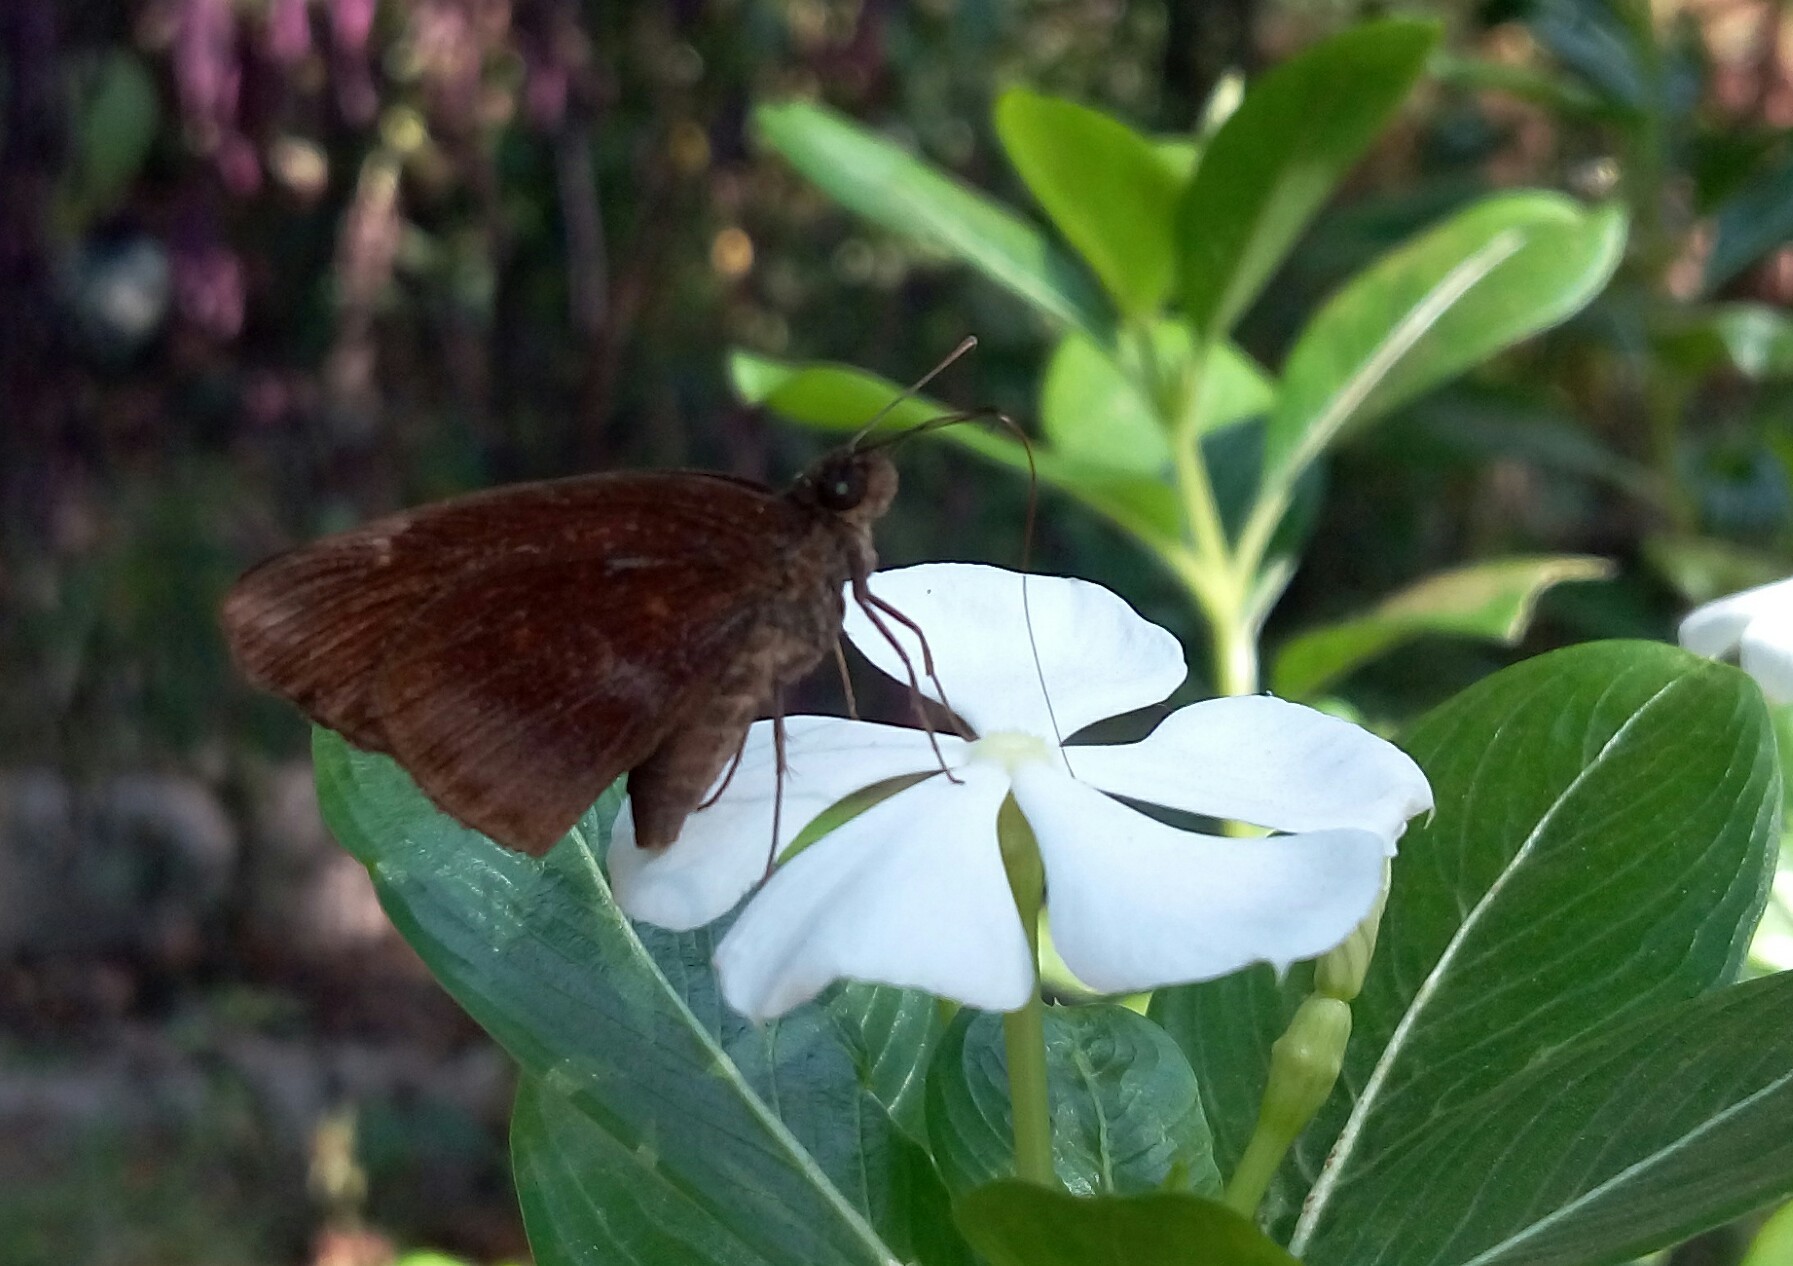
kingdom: Animalia
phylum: Arthropoda
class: Insecta
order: Lepidoptera
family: Hesperiidae
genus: Psolos
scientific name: Psolos fuligo
